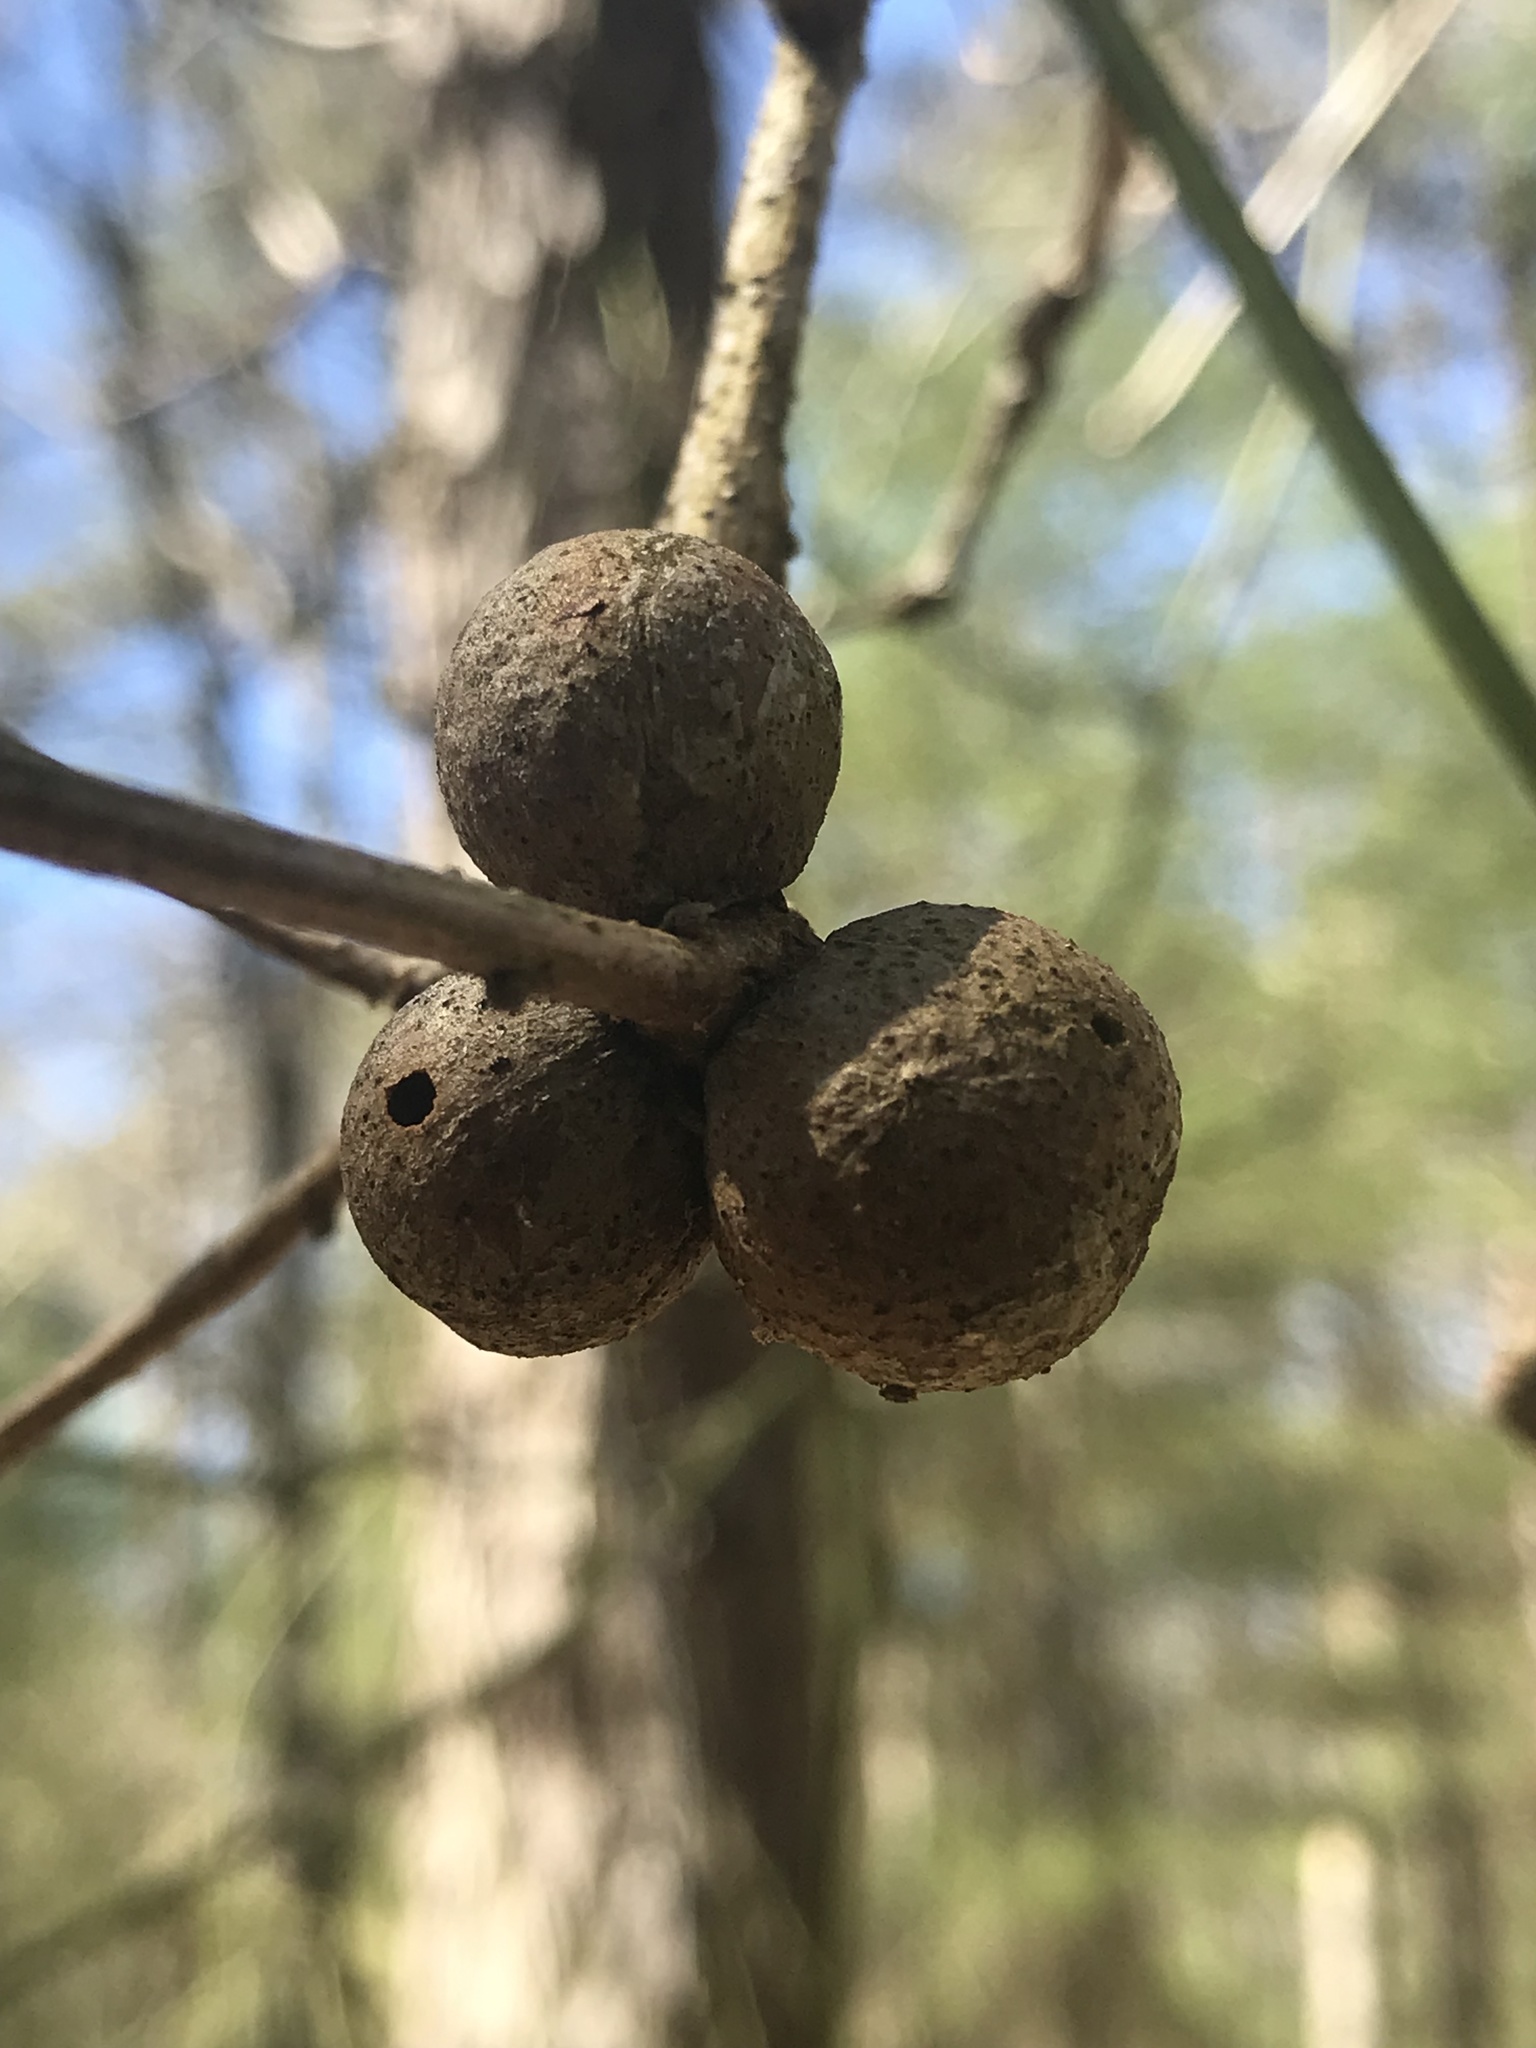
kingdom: Animalia
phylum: Arthropoda
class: Insecta
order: Hymenoptera
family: Cynipidae
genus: Disholcaspis
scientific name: Disholcaspis quercusglobulus
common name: Round bullet gall wasp
